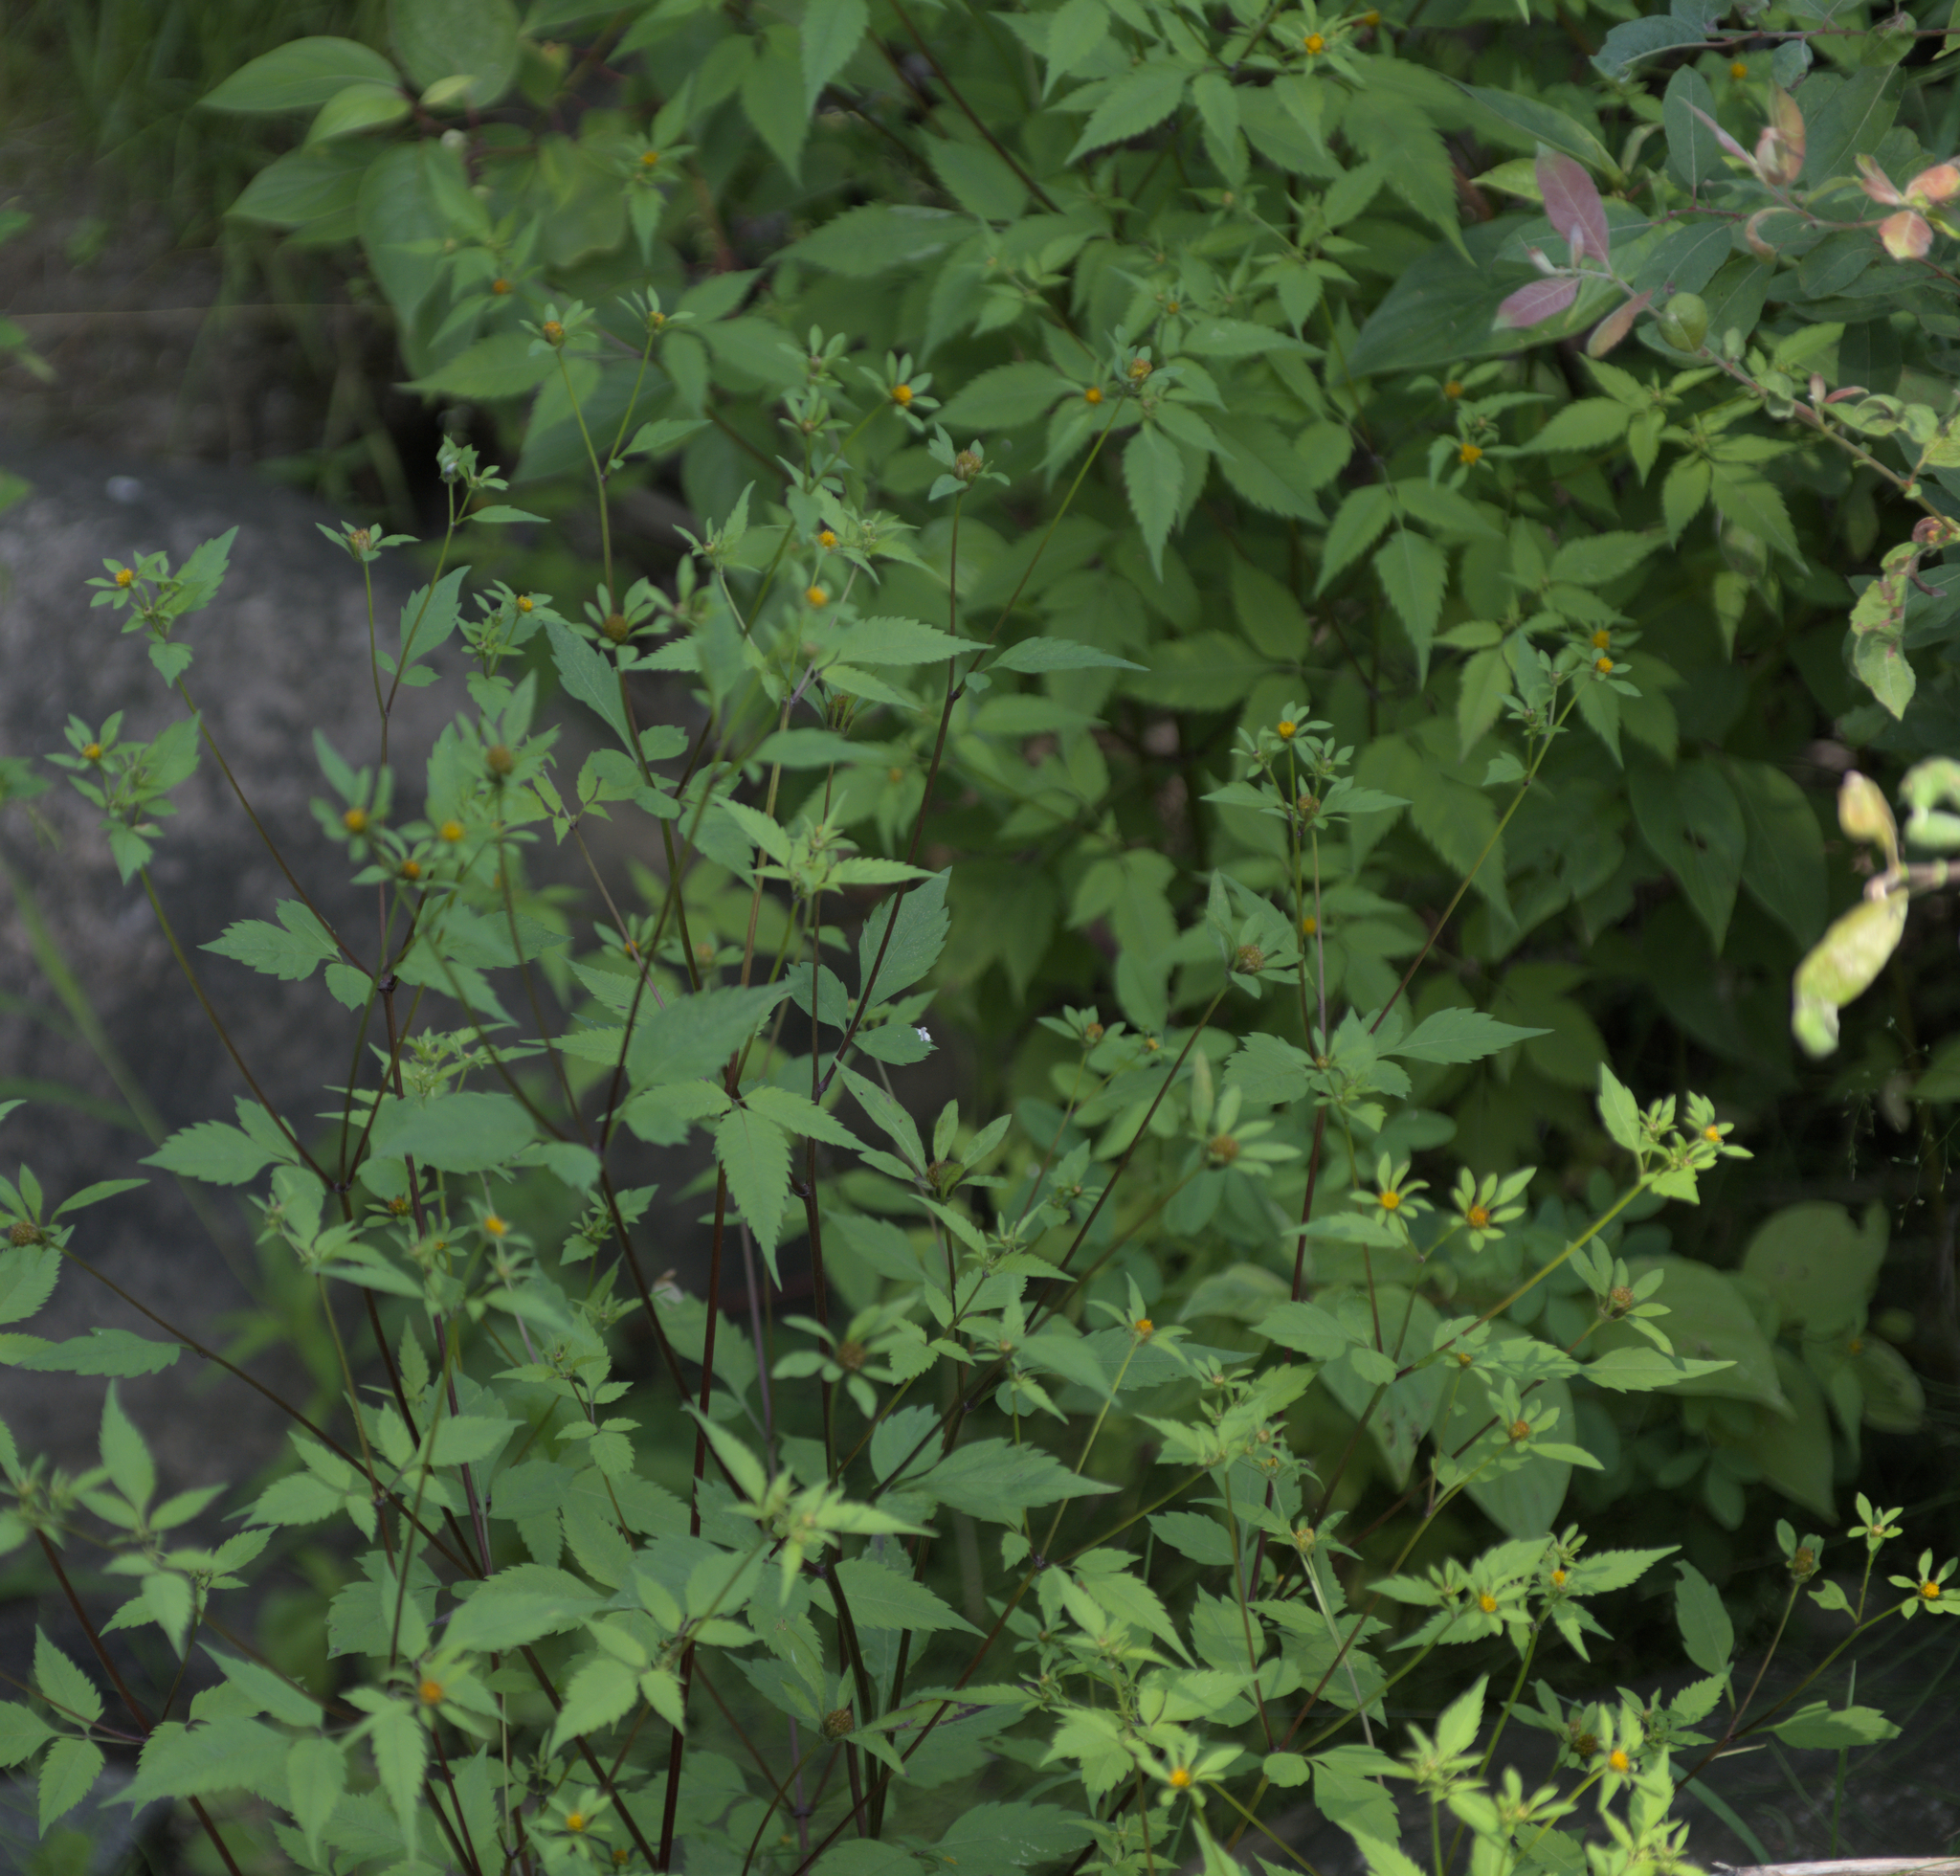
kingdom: Plantae
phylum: Tracheophyta
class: Magnoliopsida
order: Asterales
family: Asteraceae
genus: Bidens
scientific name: Bidens frondosa
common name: Beggarticks
